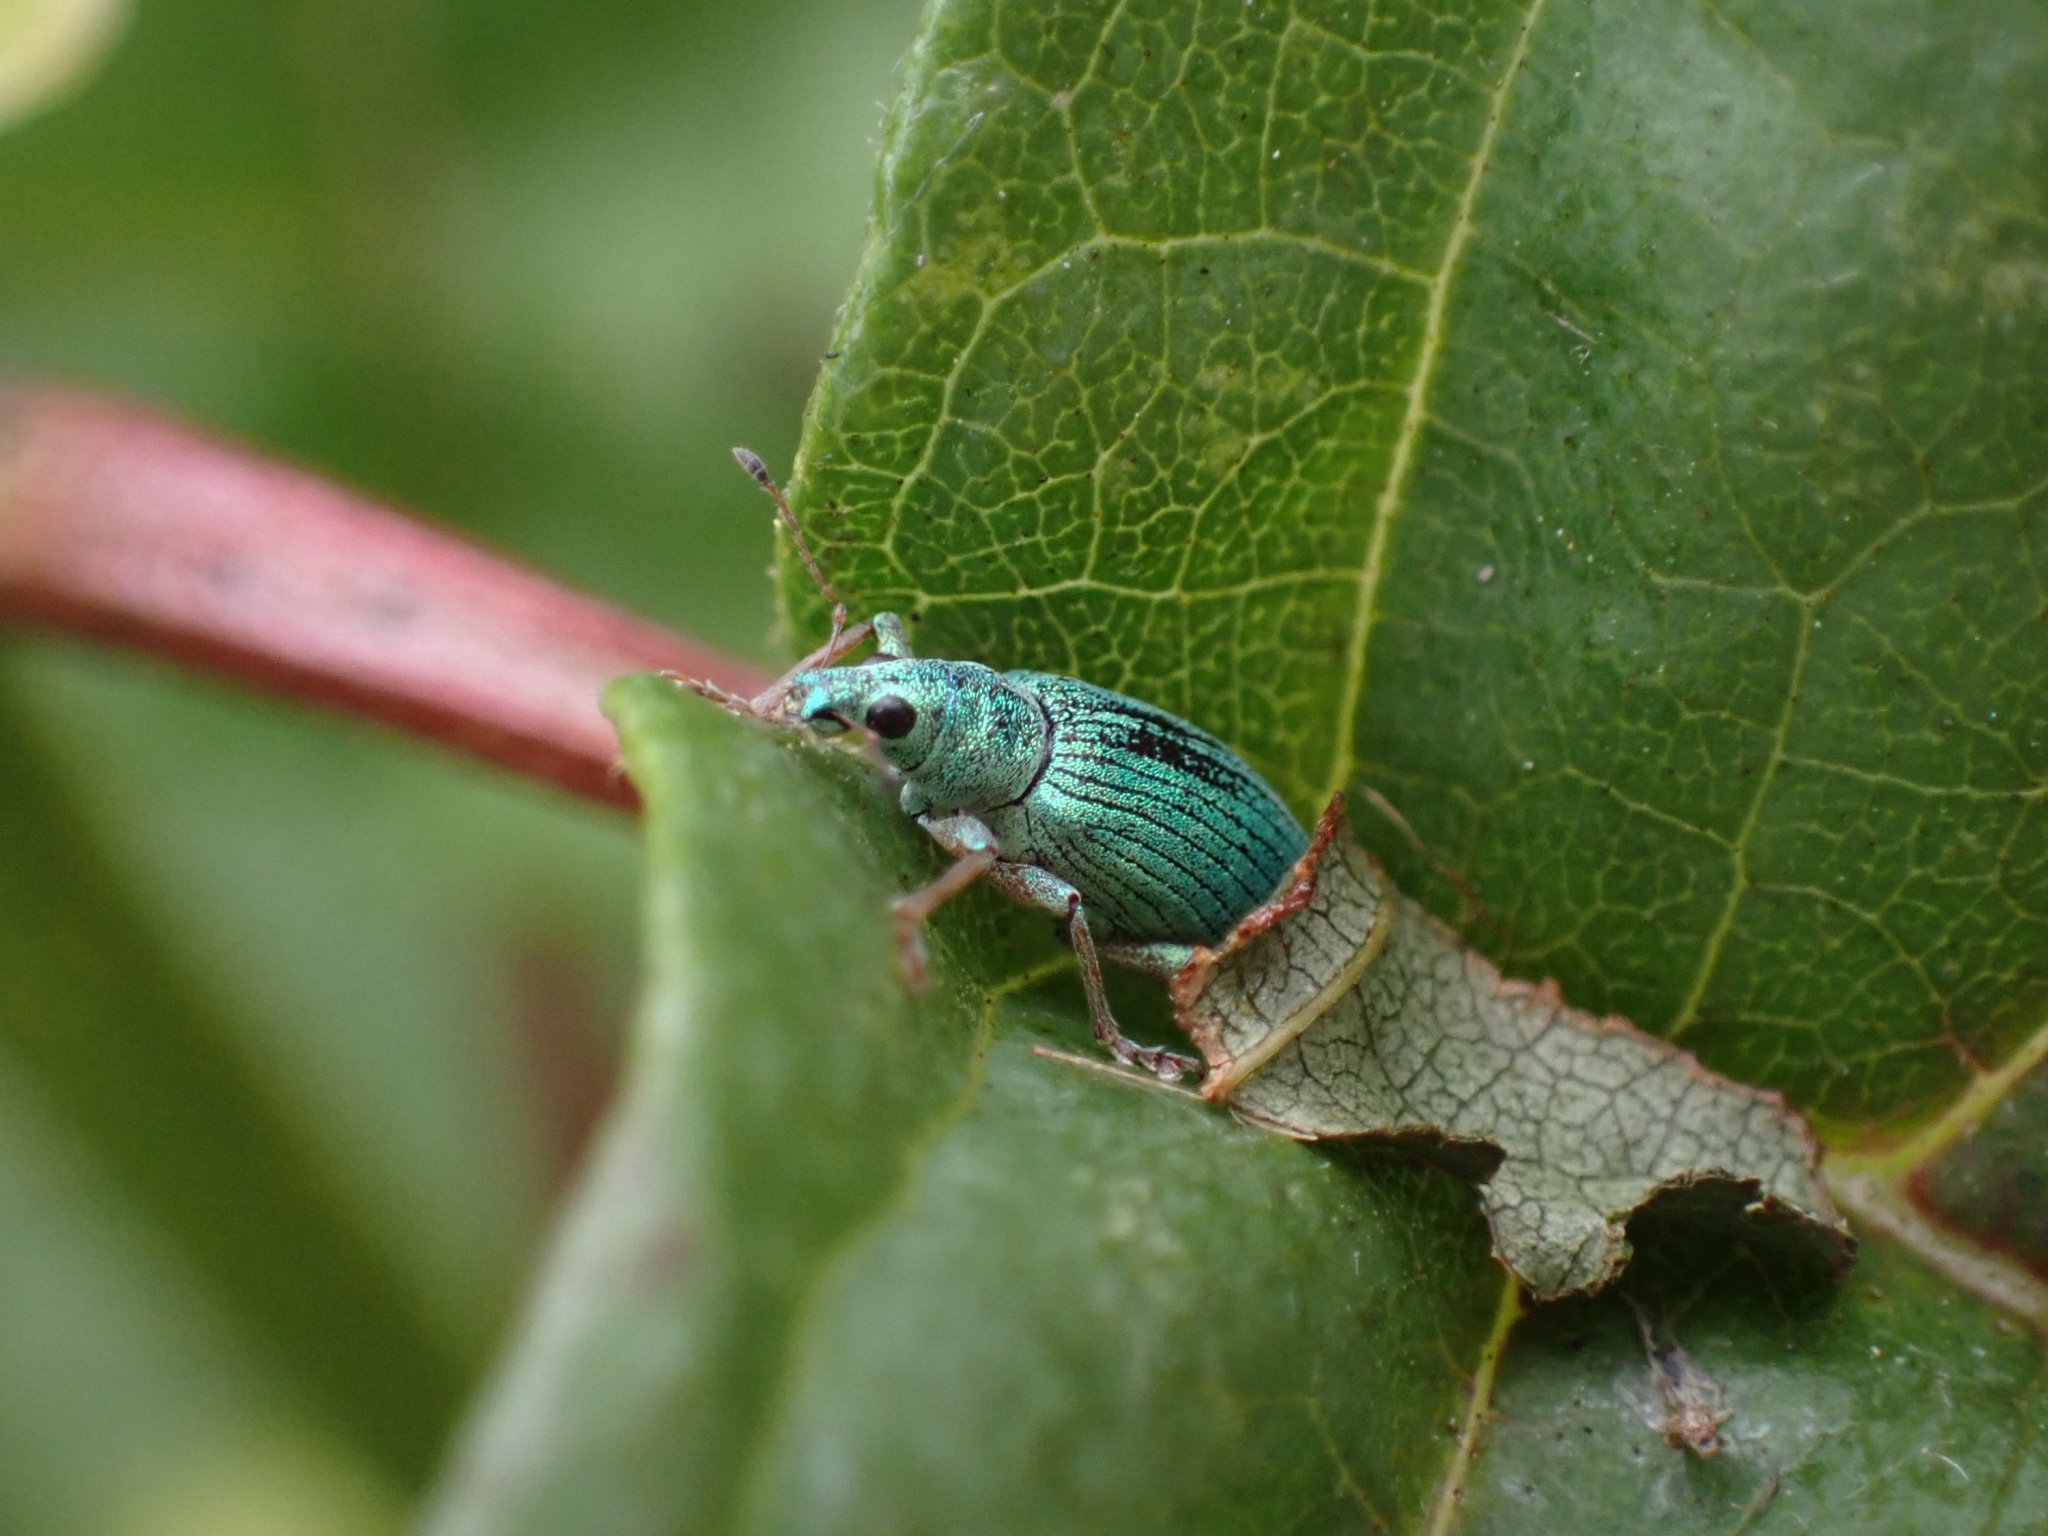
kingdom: Animalia
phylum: Arthropoda
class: Insecta
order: Coleoptera
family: Curculionidae
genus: Polydrusus
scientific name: Polydrusus formosus
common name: Weevil
